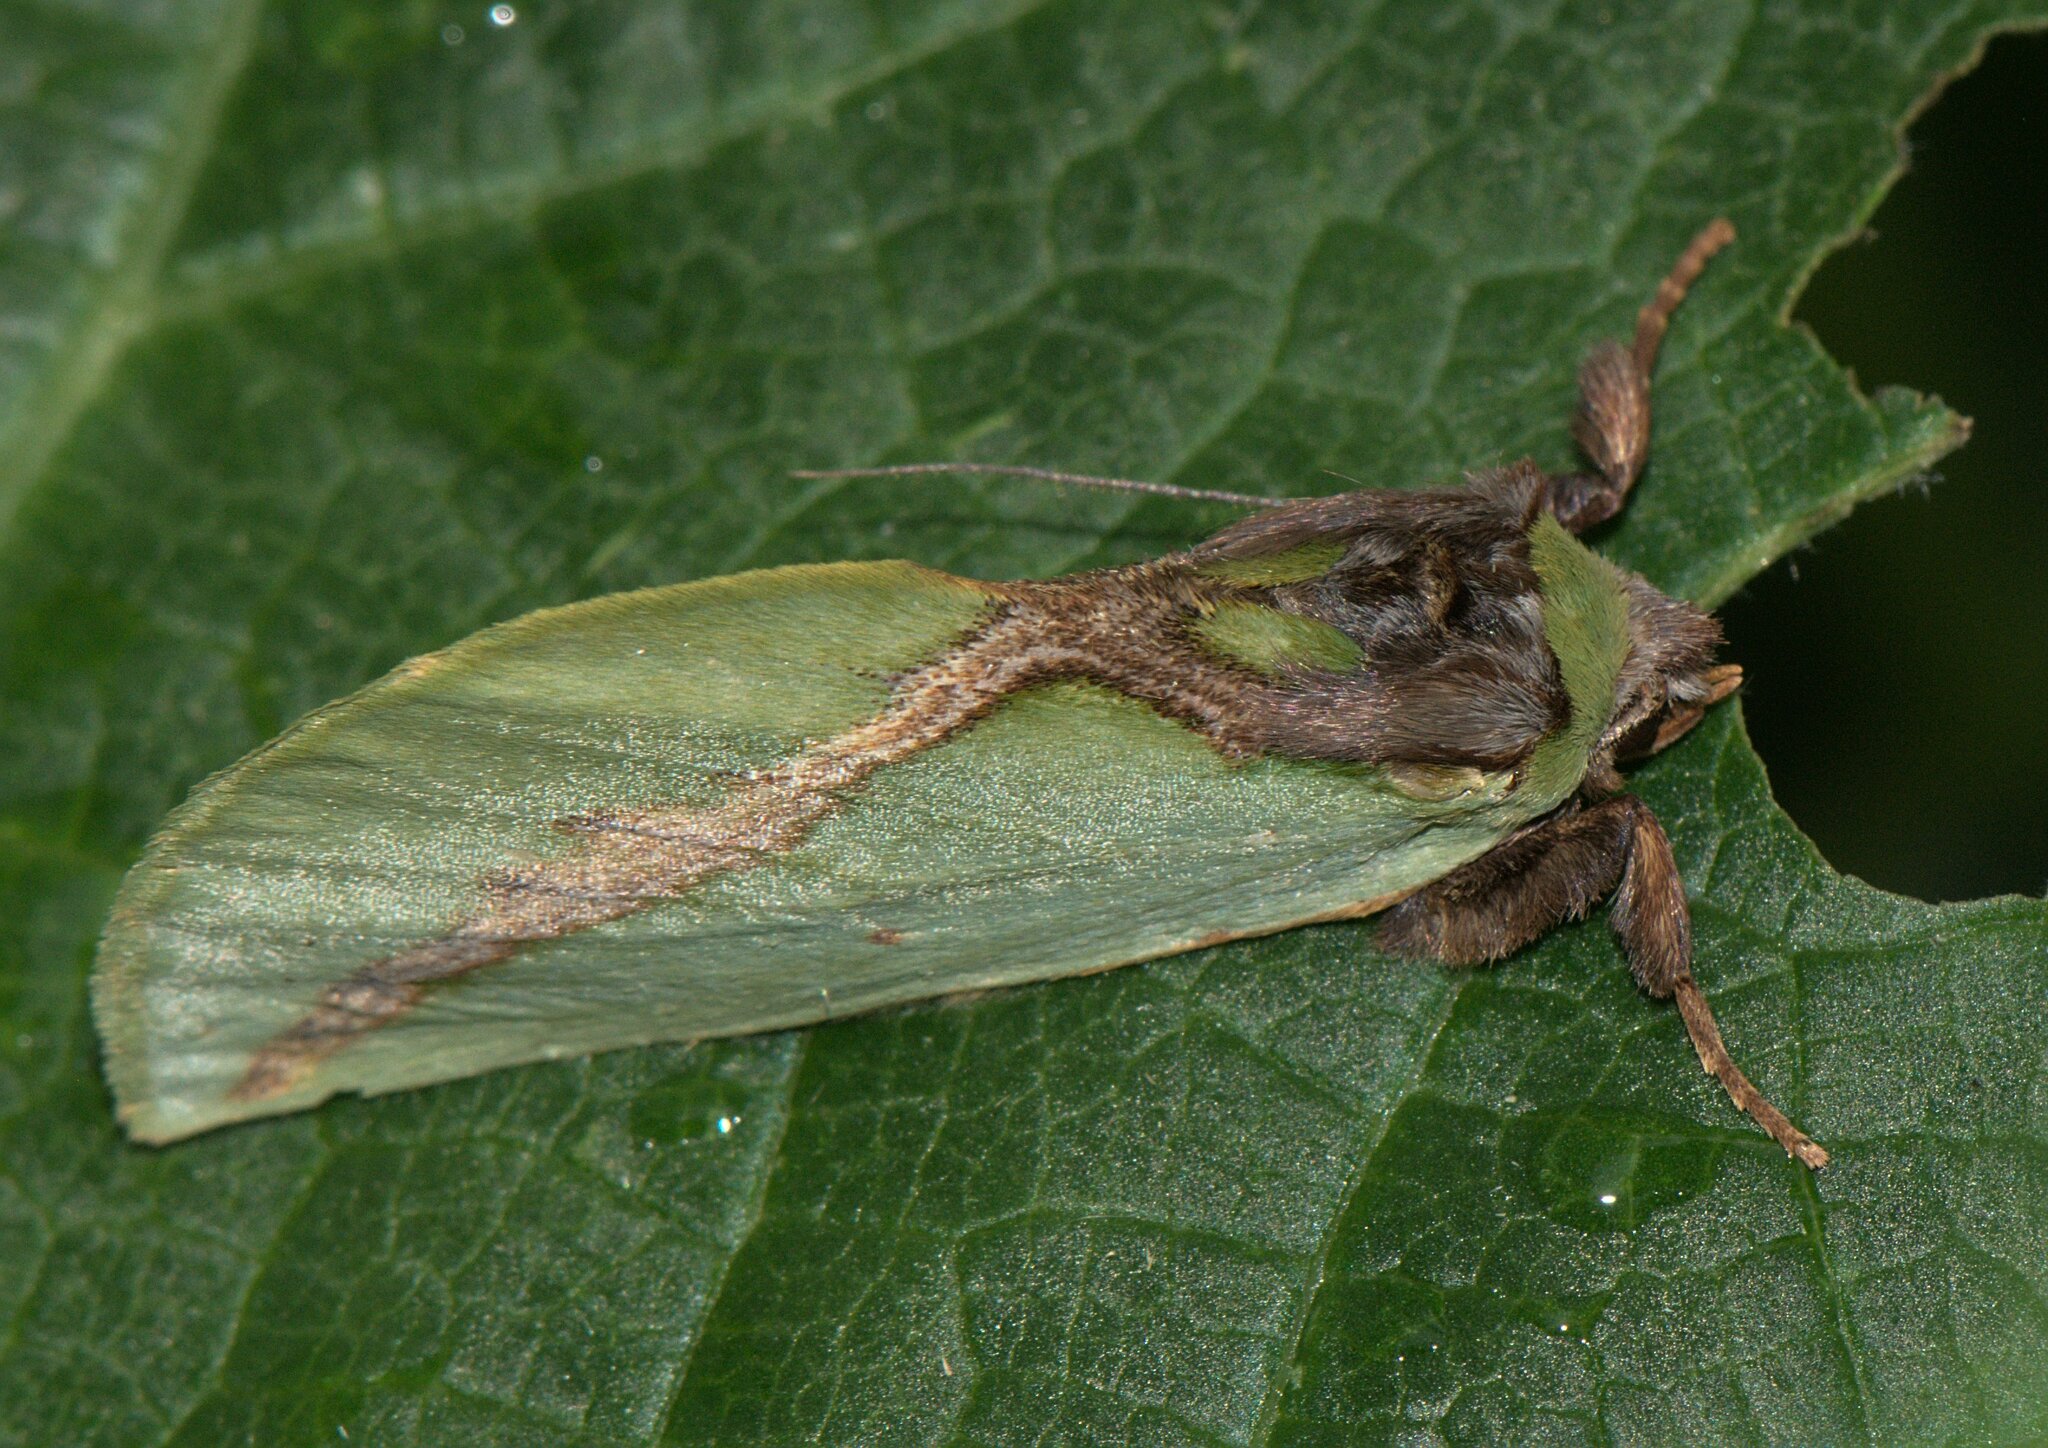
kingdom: Animalia
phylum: Arthropoda
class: Insecta
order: Lepidoptera
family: Notodontidae
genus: Cyphanta
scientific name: Cyphanta xanthochlora
